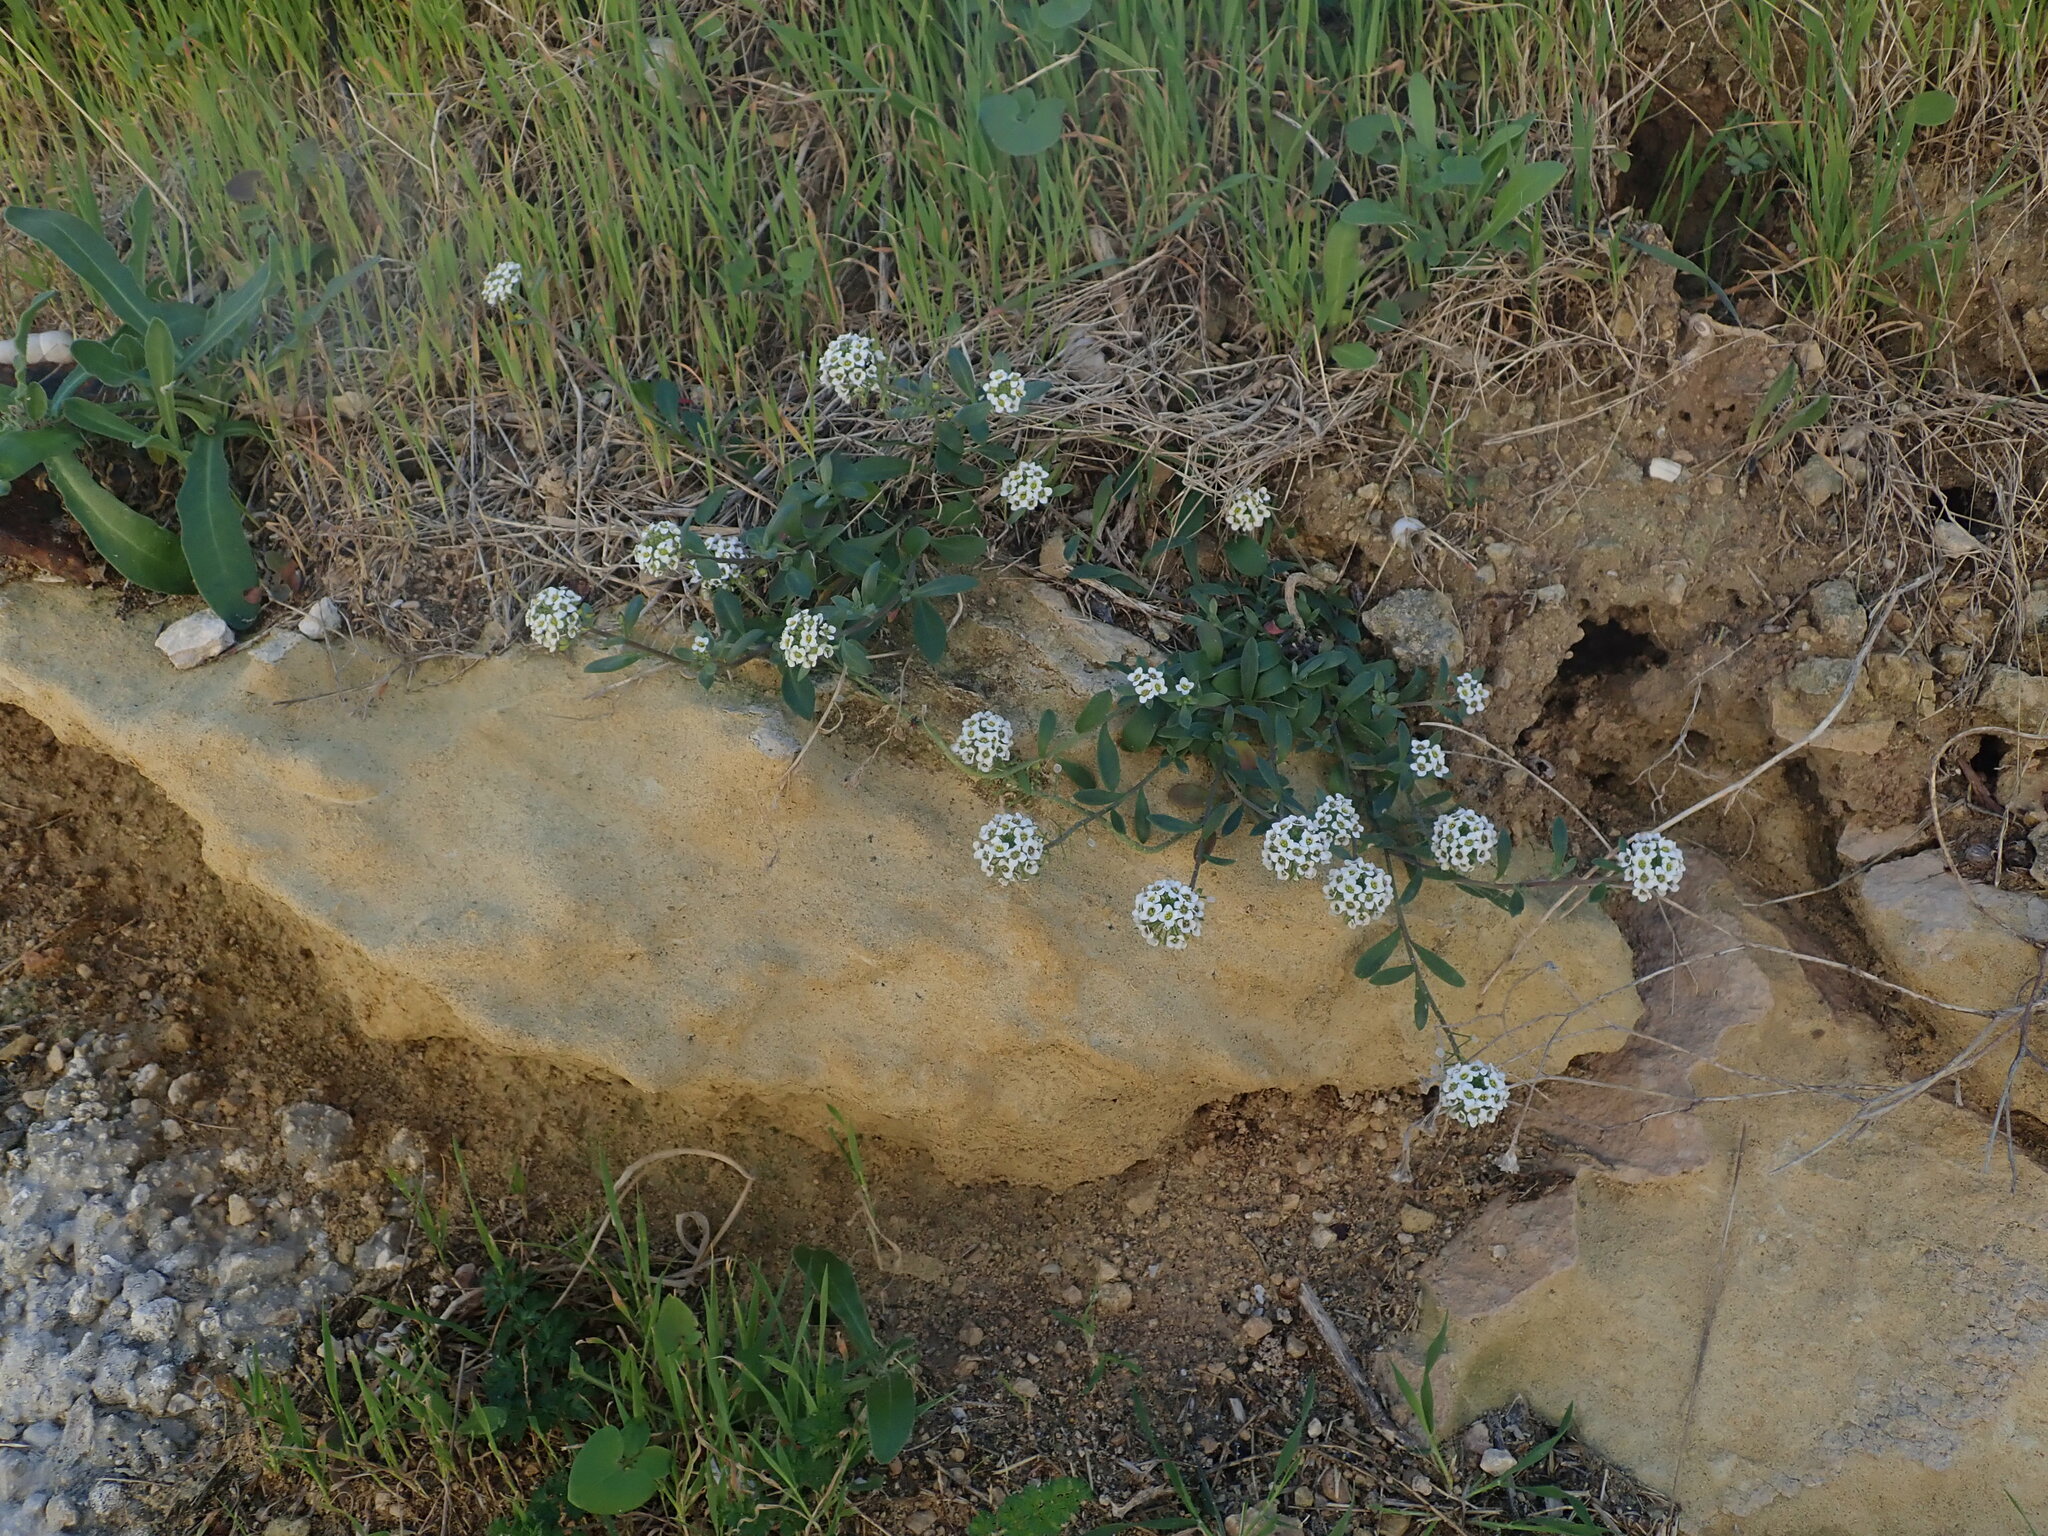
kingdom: Plantae
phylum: Tracheophyta
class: Magnoliopsida
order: Brassicales
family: Brassicaceae
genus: Lobularia
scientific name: Lobularia maritima
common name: Sweet alison
